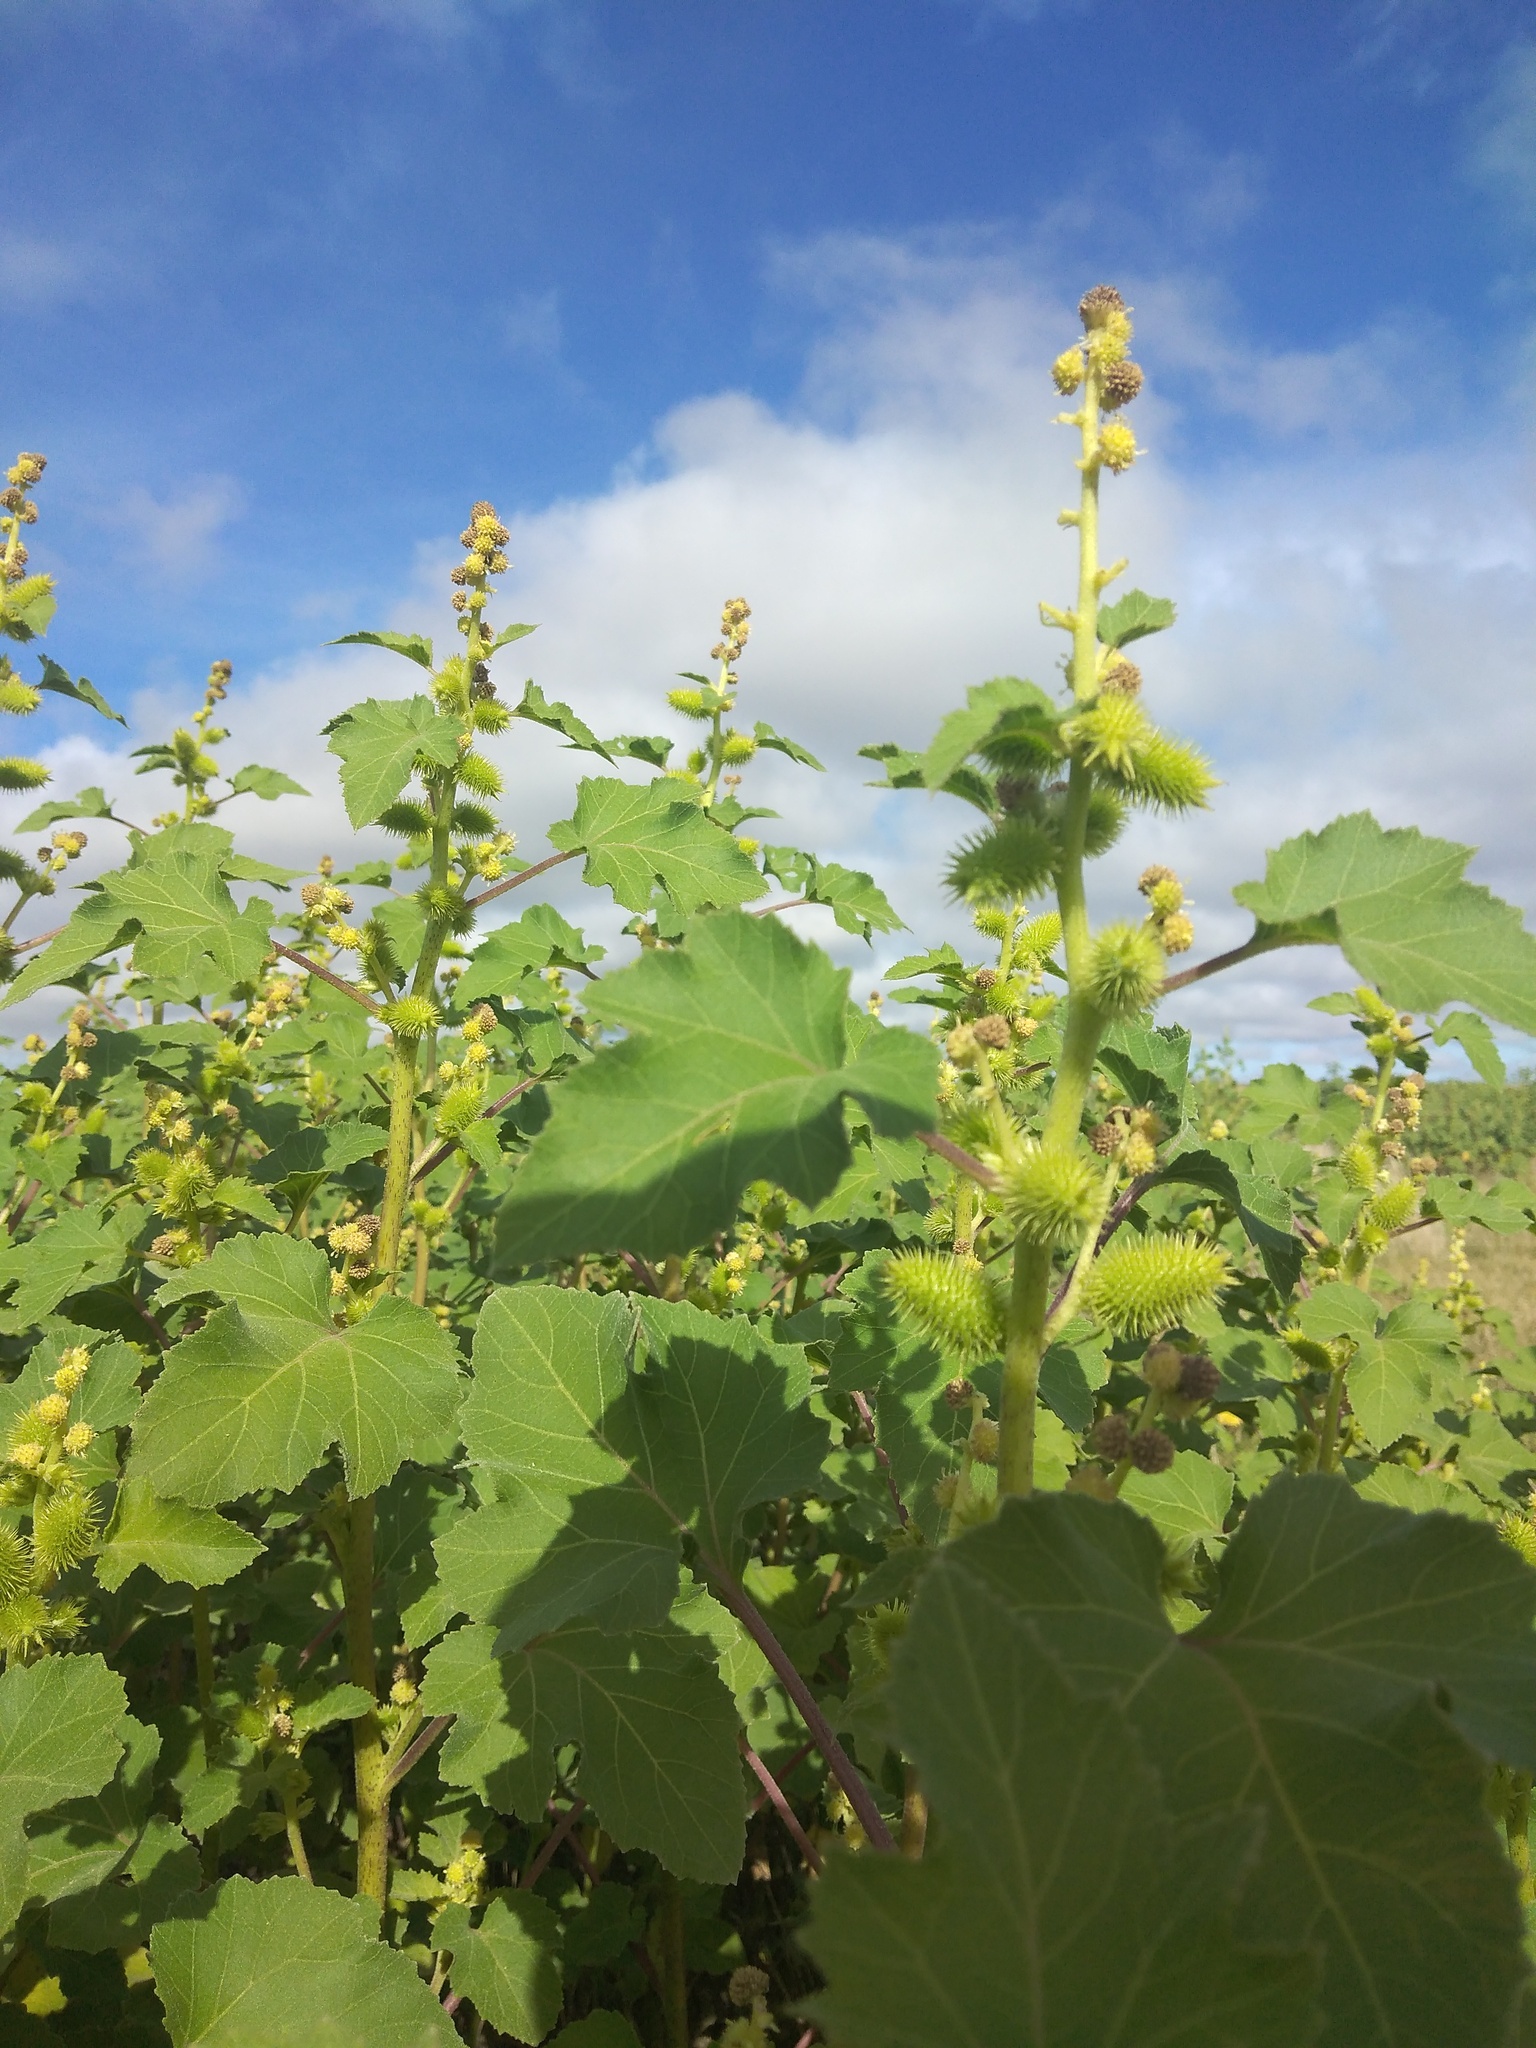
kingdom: Plantae
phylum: Tracheophyta
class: Magnoliopsida
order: Asterales
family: Asteraceae
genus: Xanthium
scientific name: Xanthium strumarium
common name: Rough cocklebur
